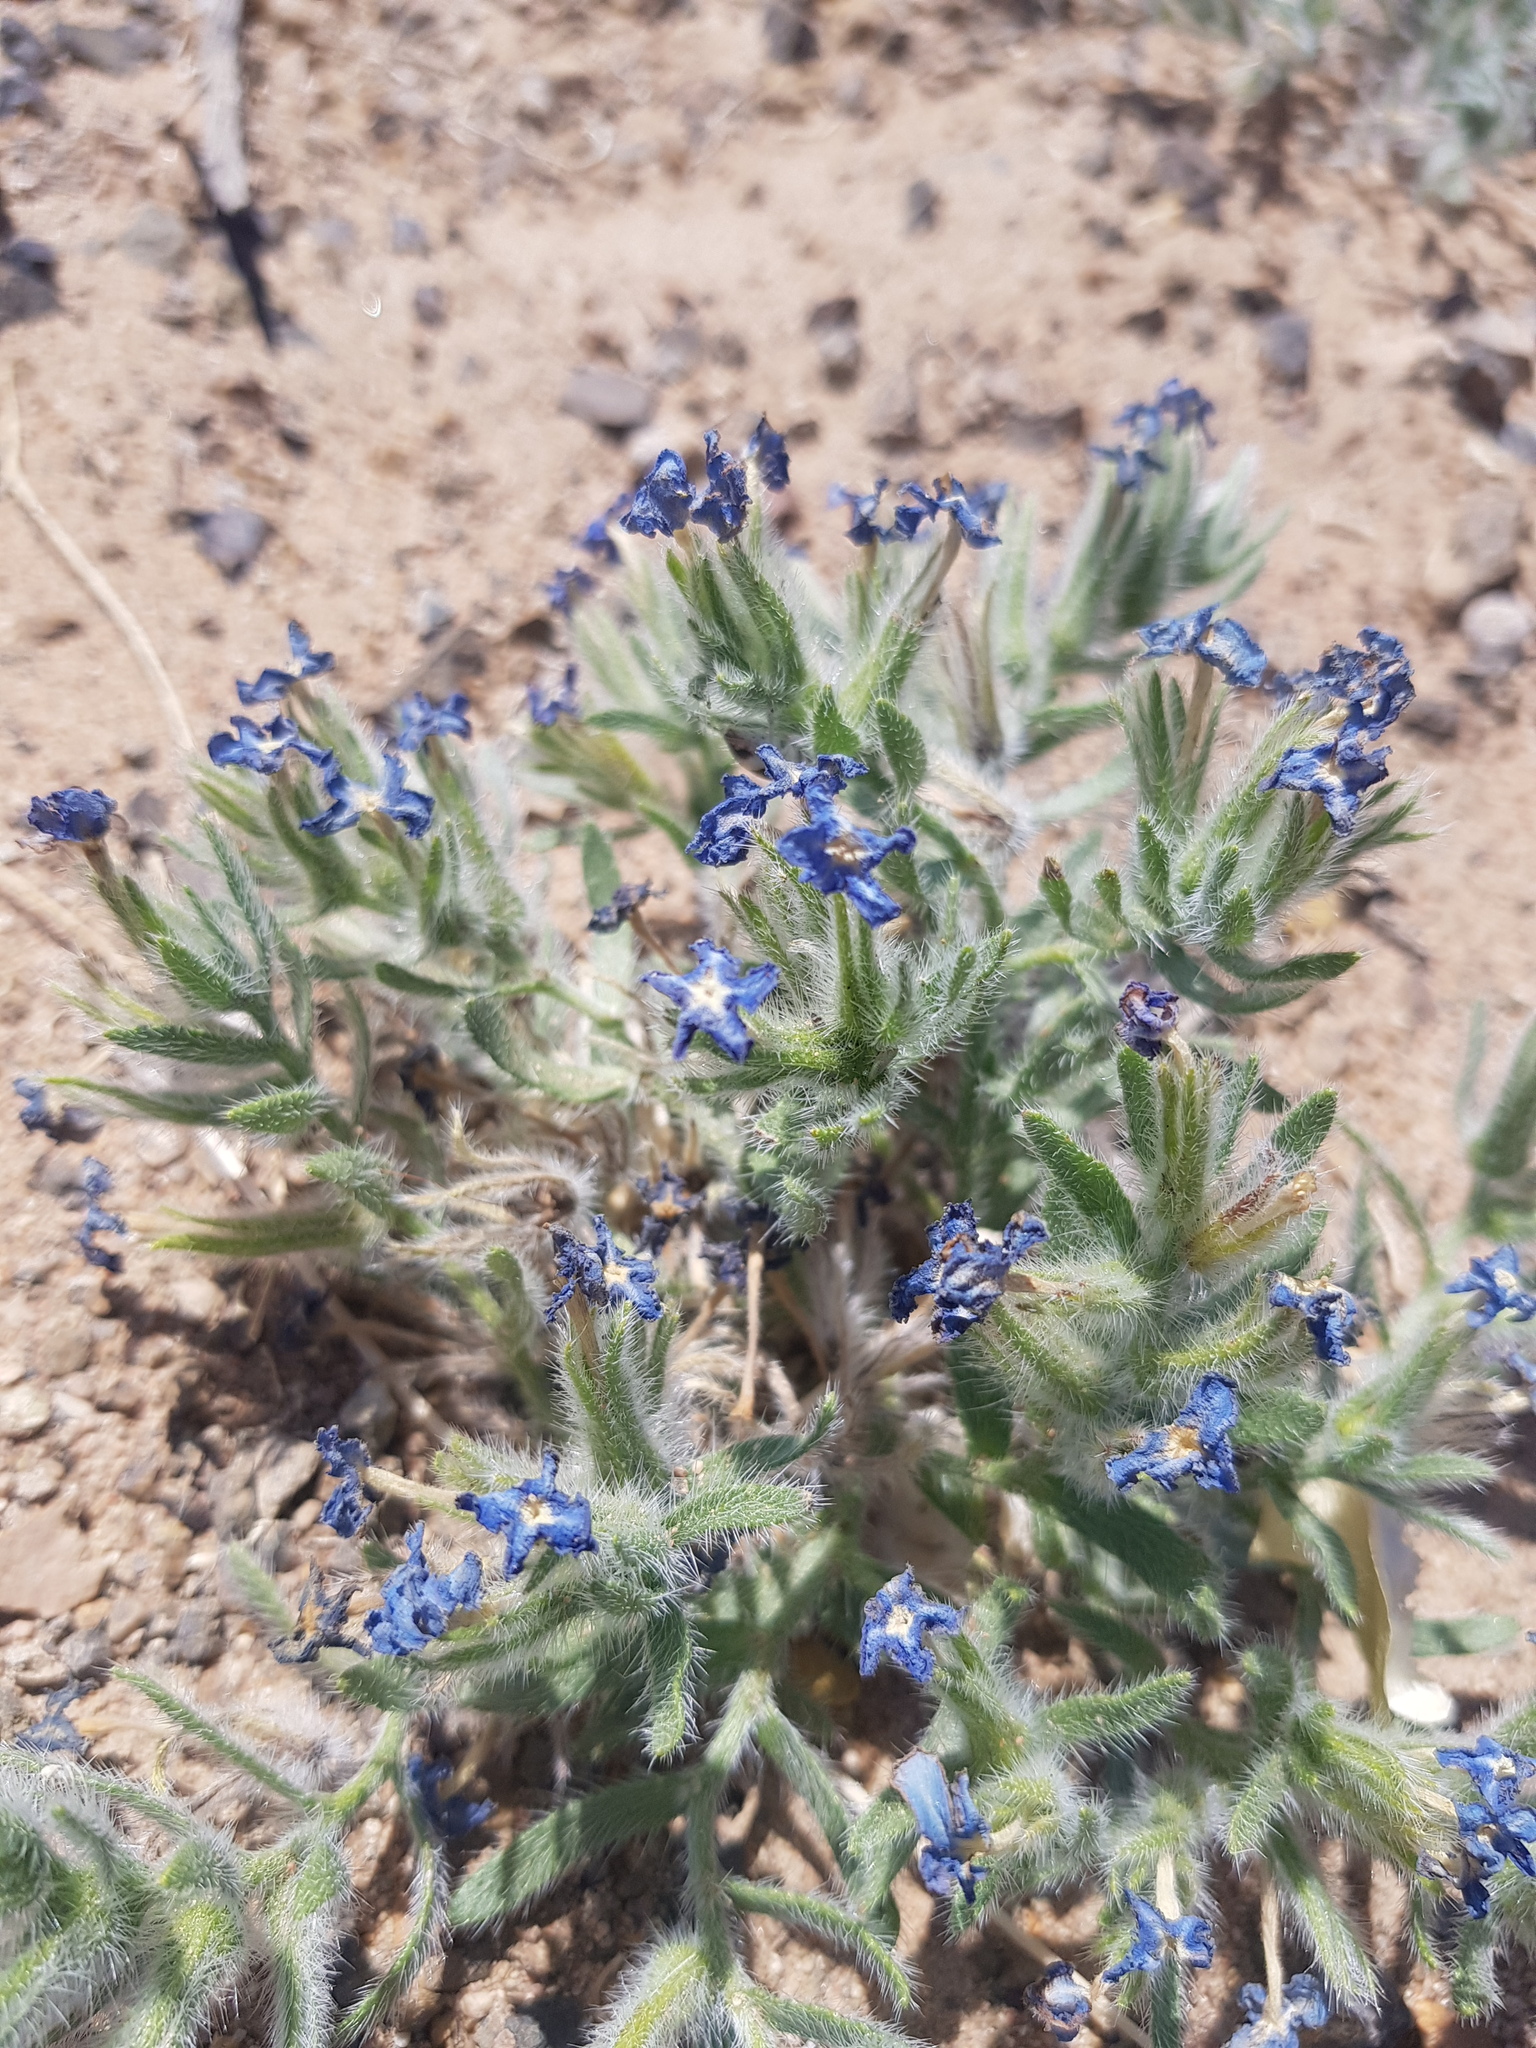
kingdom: Plantae
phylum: Tracheophyta
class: Magnoliopsida
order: Boraginales
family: Boraginaceae
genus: Arnebia
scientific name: Arnebia fimbriata
